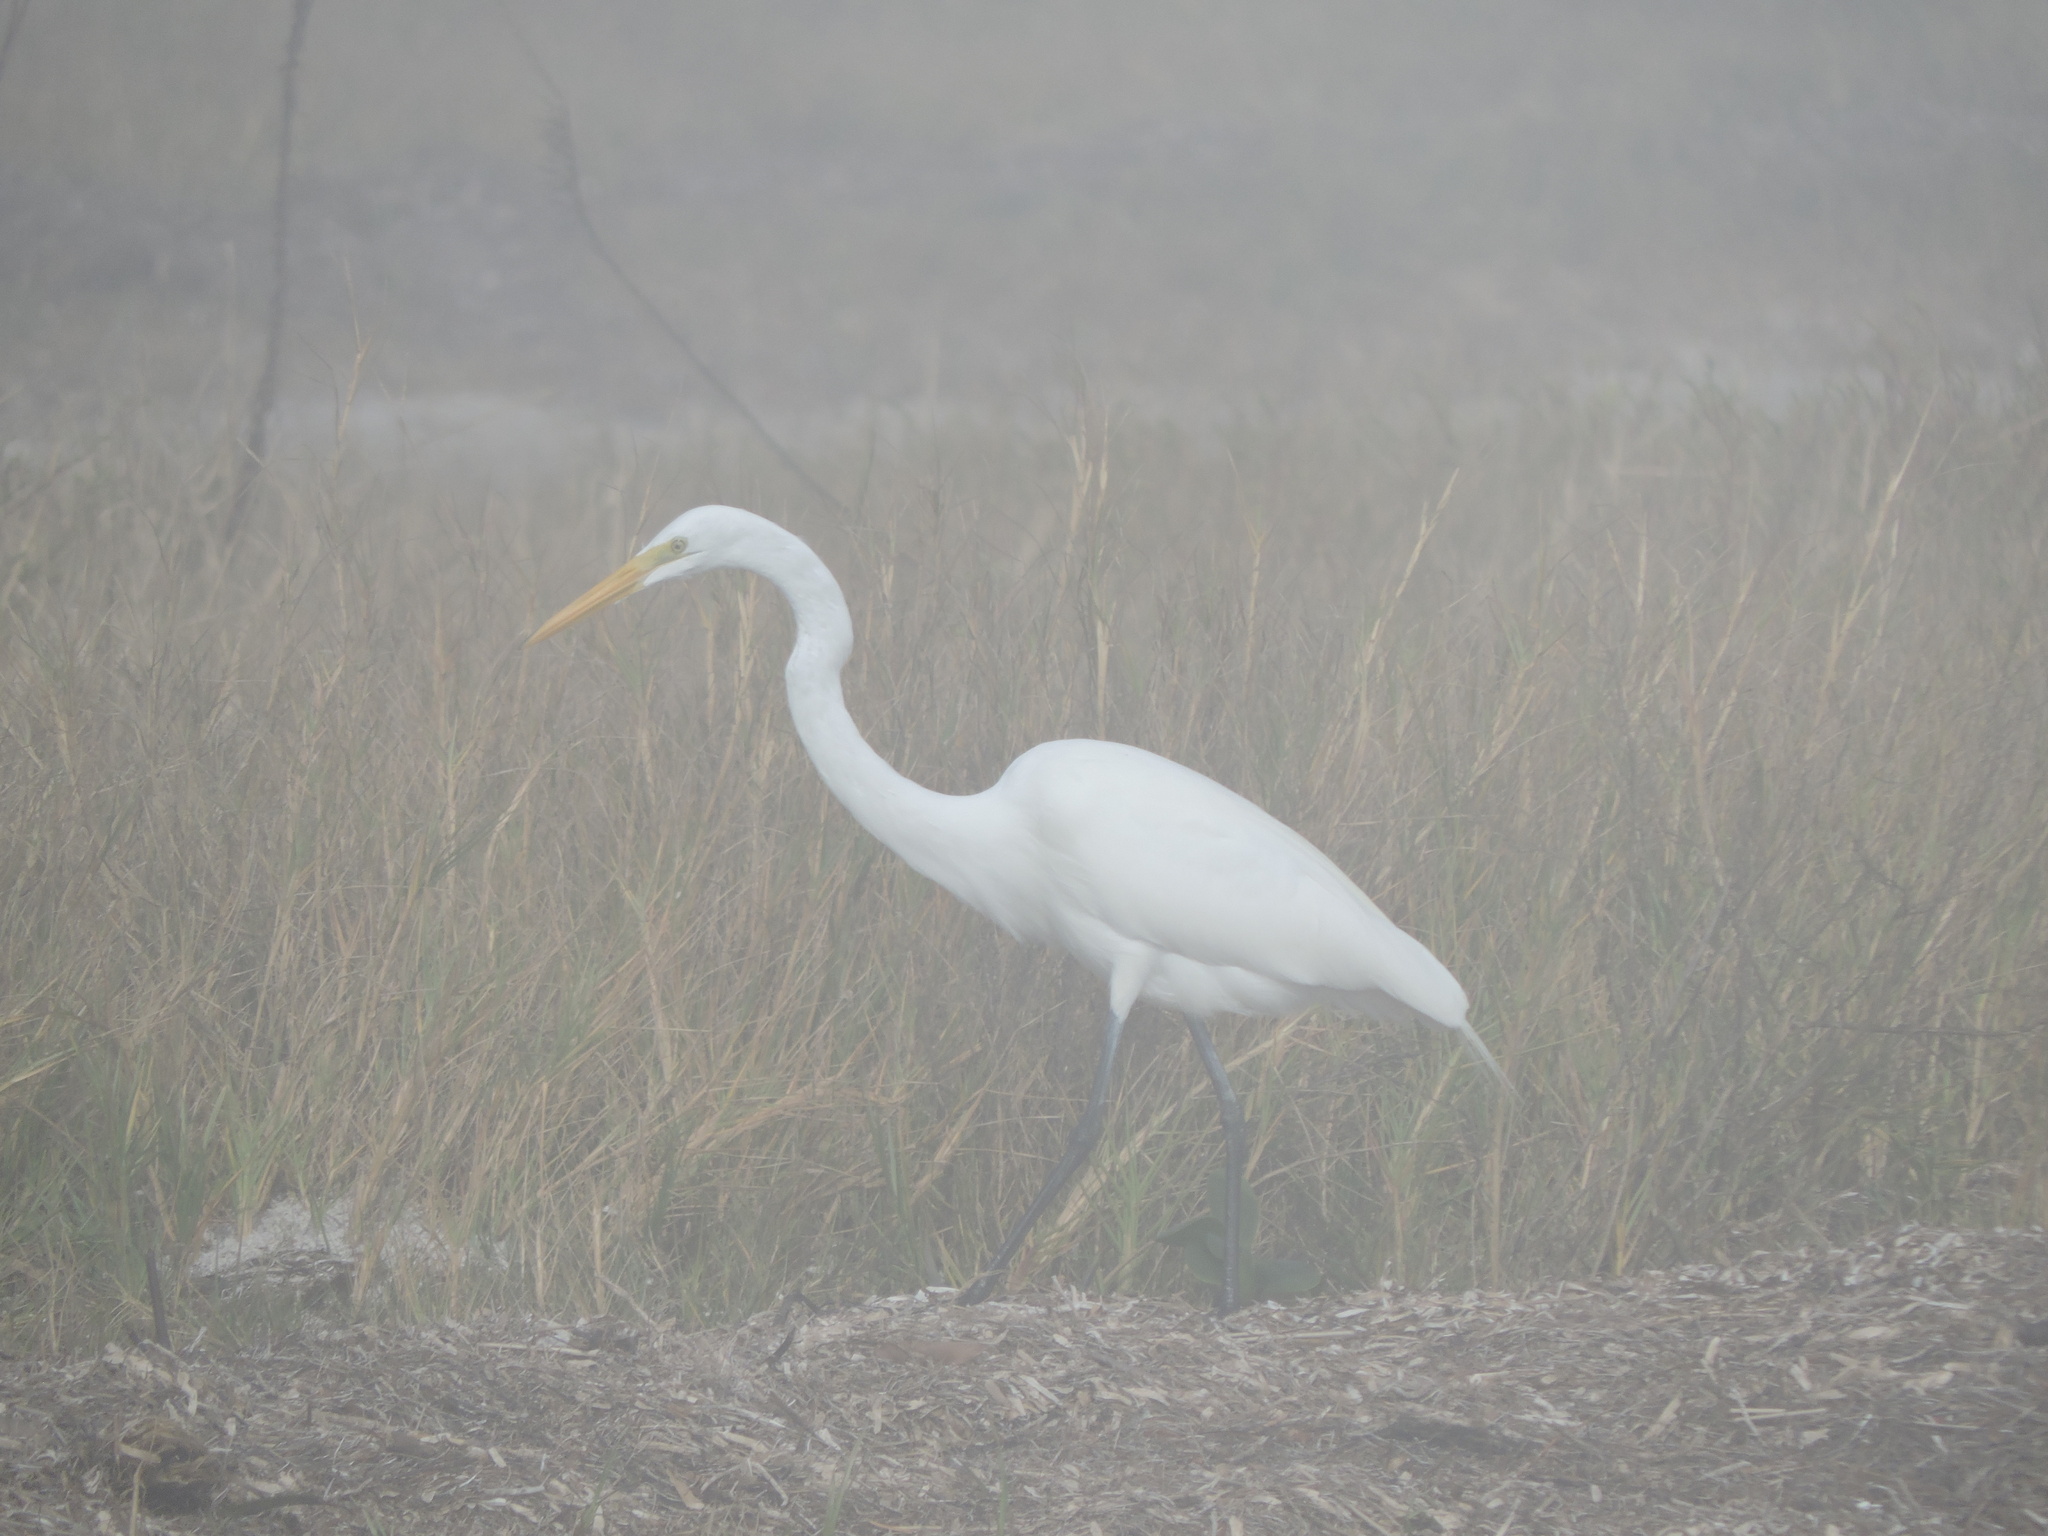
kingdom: Animalia
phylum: Chordata
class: Aves
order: Pelecaniformes
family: Ardeidae
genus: Ardea
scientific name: Ardea alba
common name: Great egret
